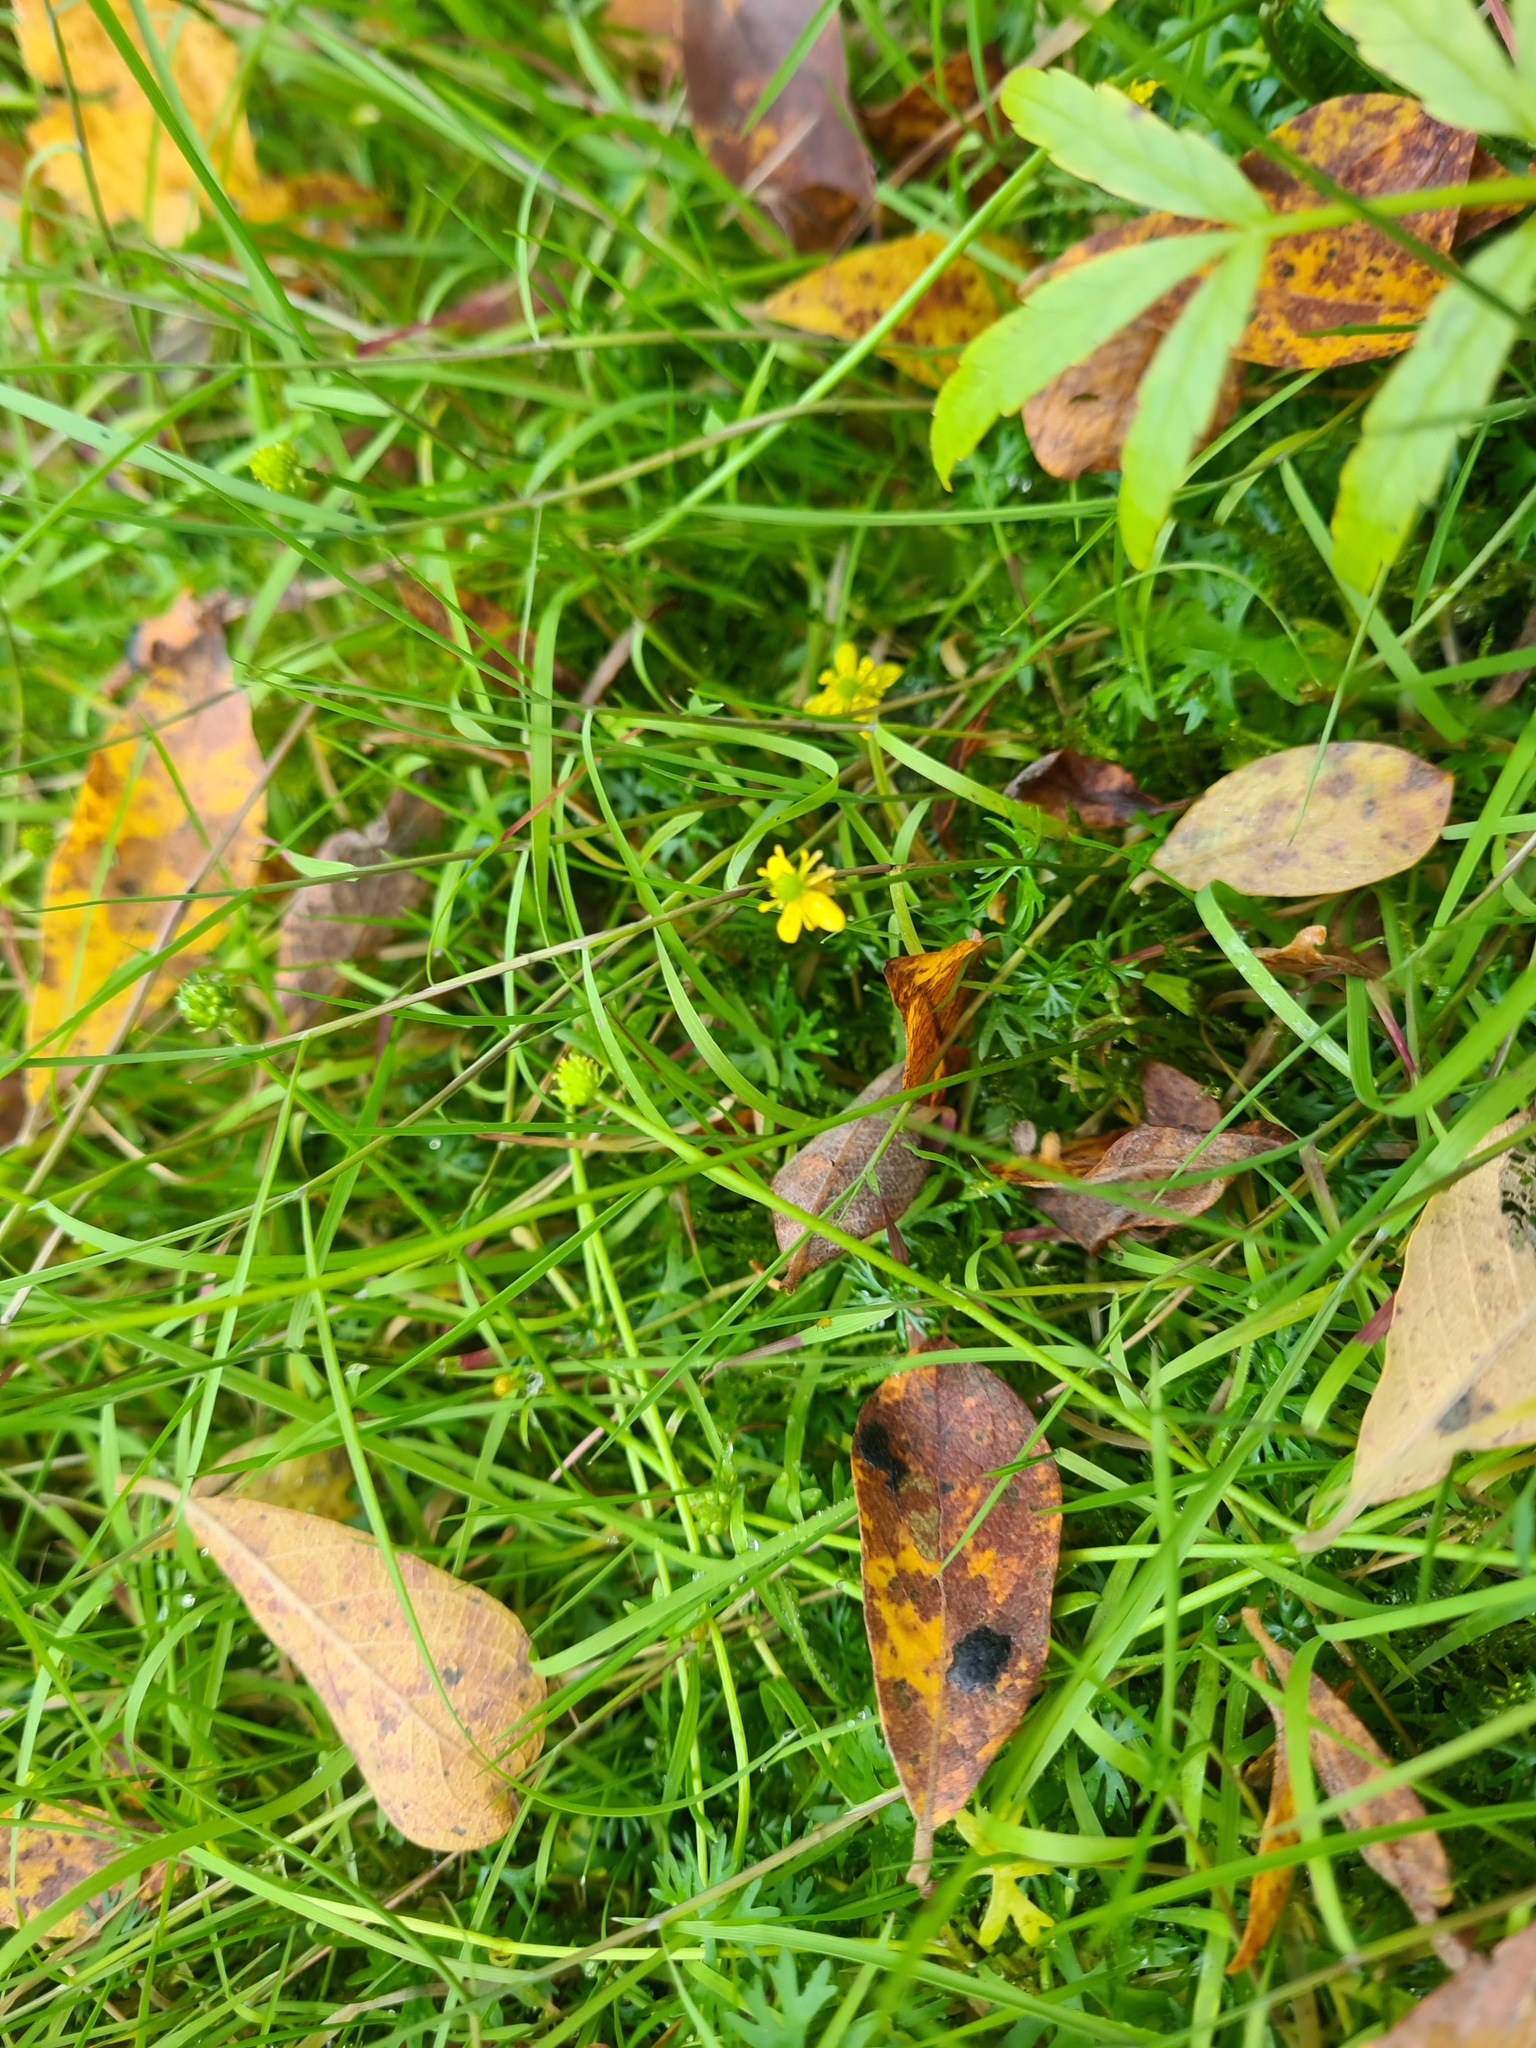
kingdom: Plantae
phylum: Tracheophyta
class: Magnoliopsida
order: Ranunculales
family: Ranunculaceae
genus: Ranunculus
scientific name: Ranunculus gmelinii
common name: Gmelin's buttercup
